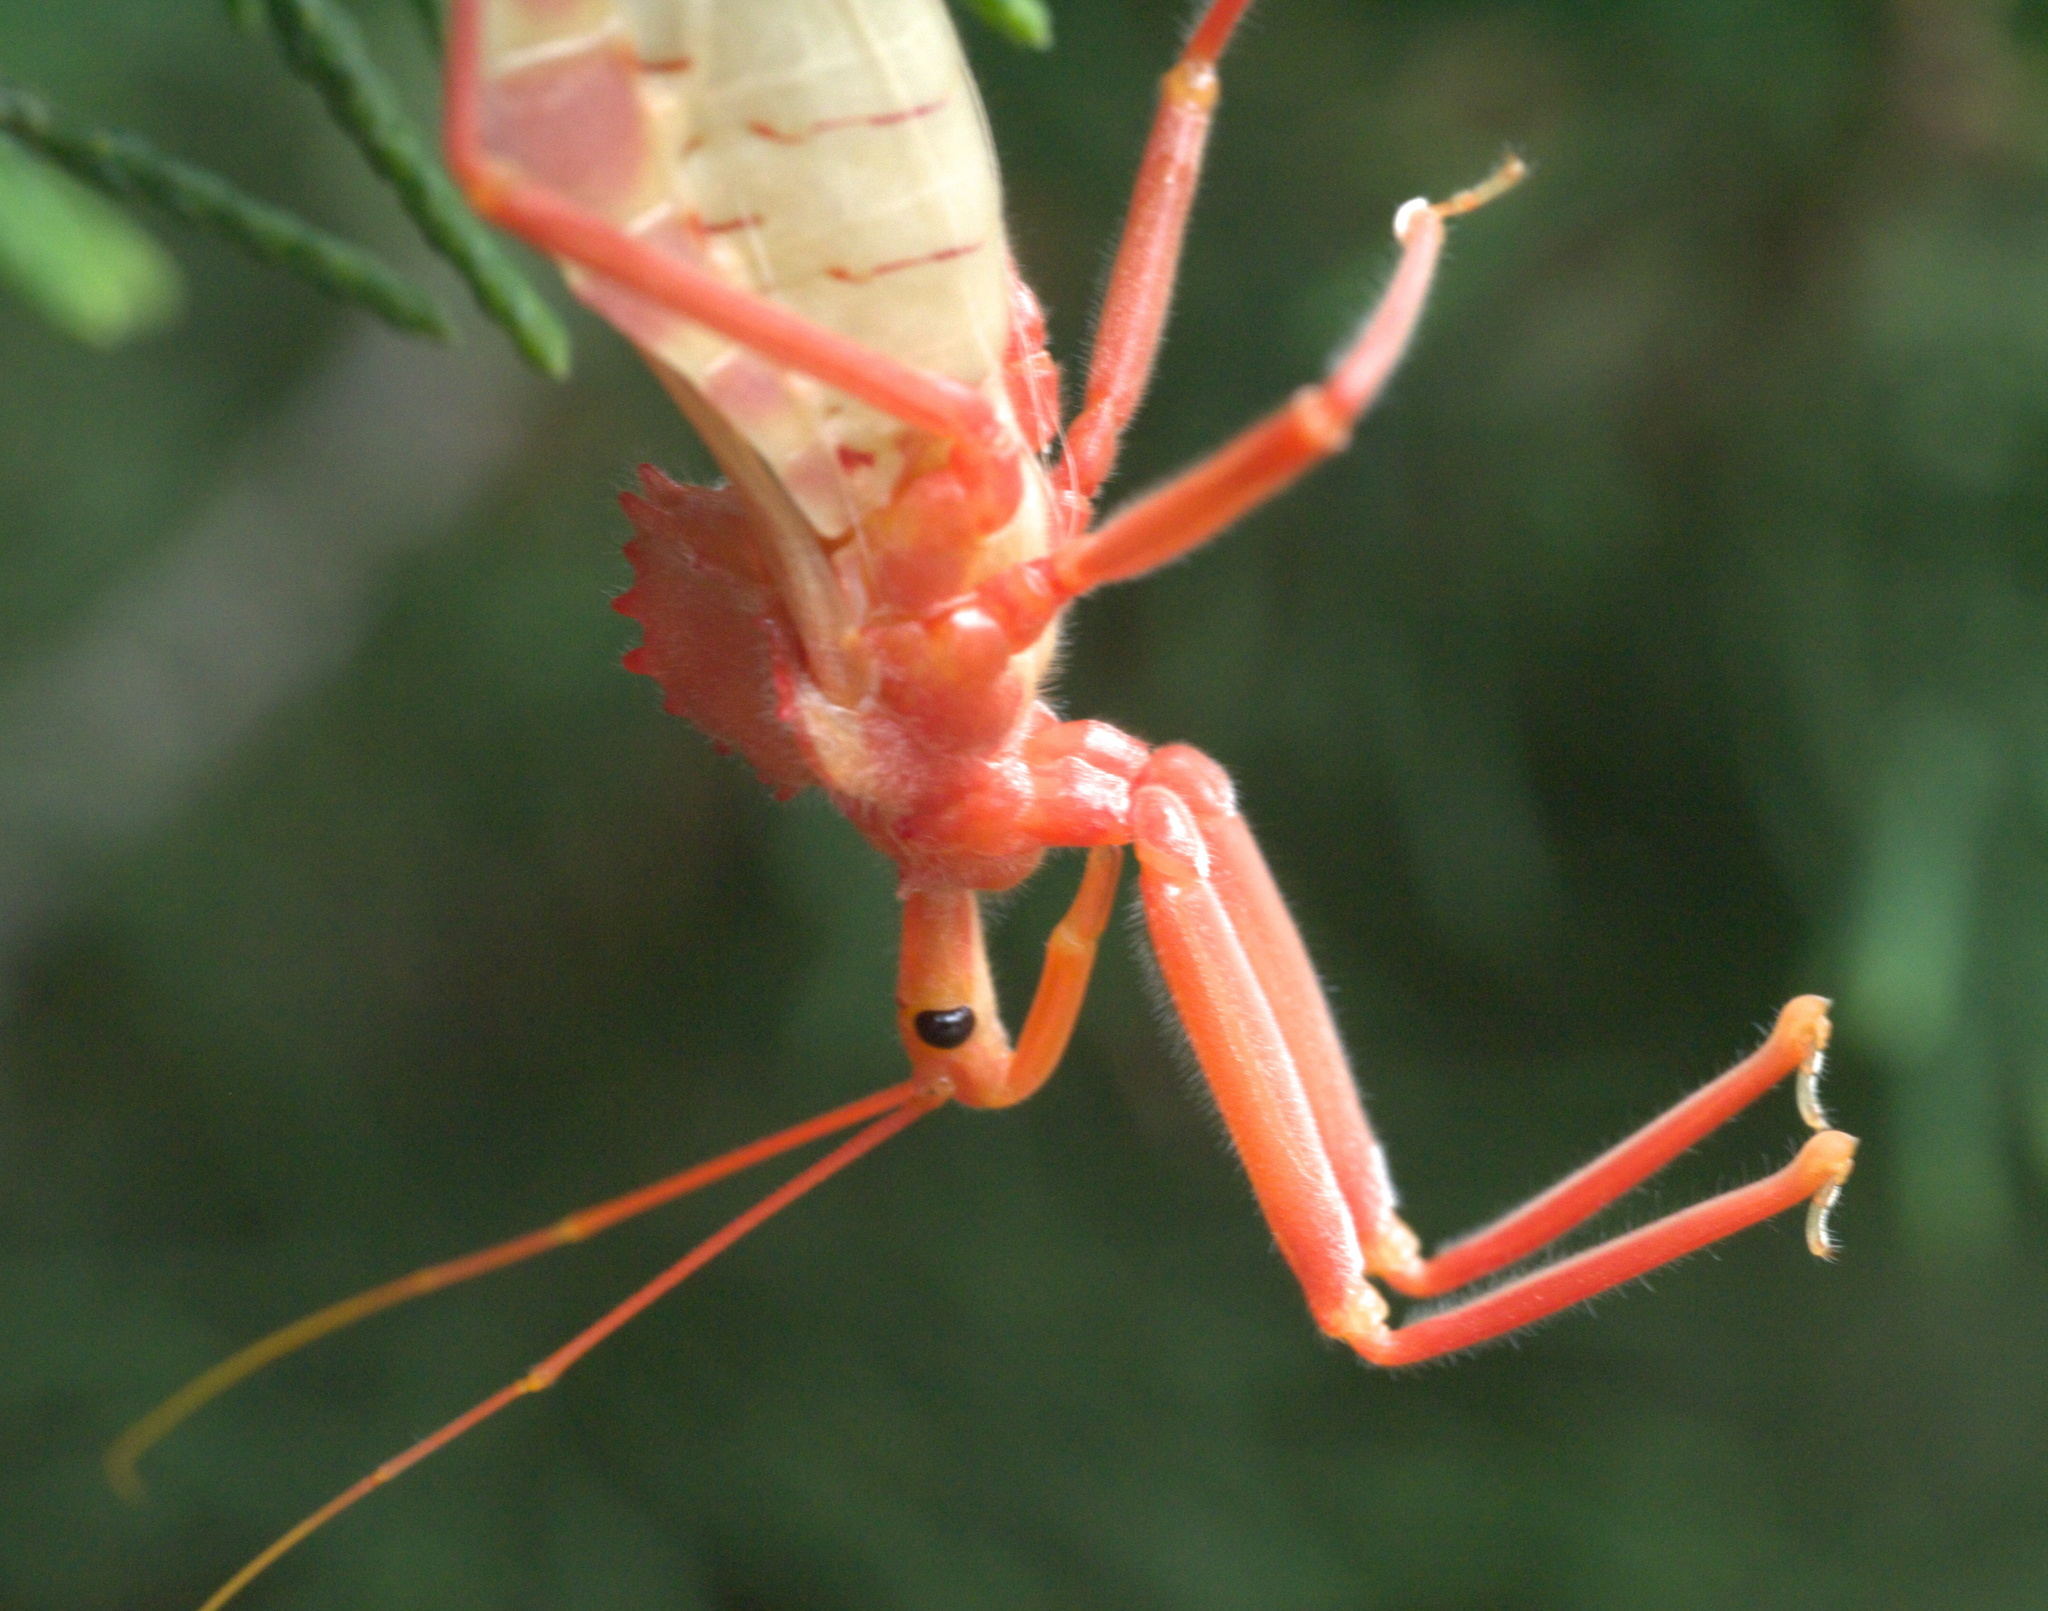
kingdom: Animalia
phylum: Arthropoda
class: Insecta
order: Hemiptera
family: Reduviidae
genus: Arilus
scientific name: Arilus cristatus
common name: North american wheel bug
